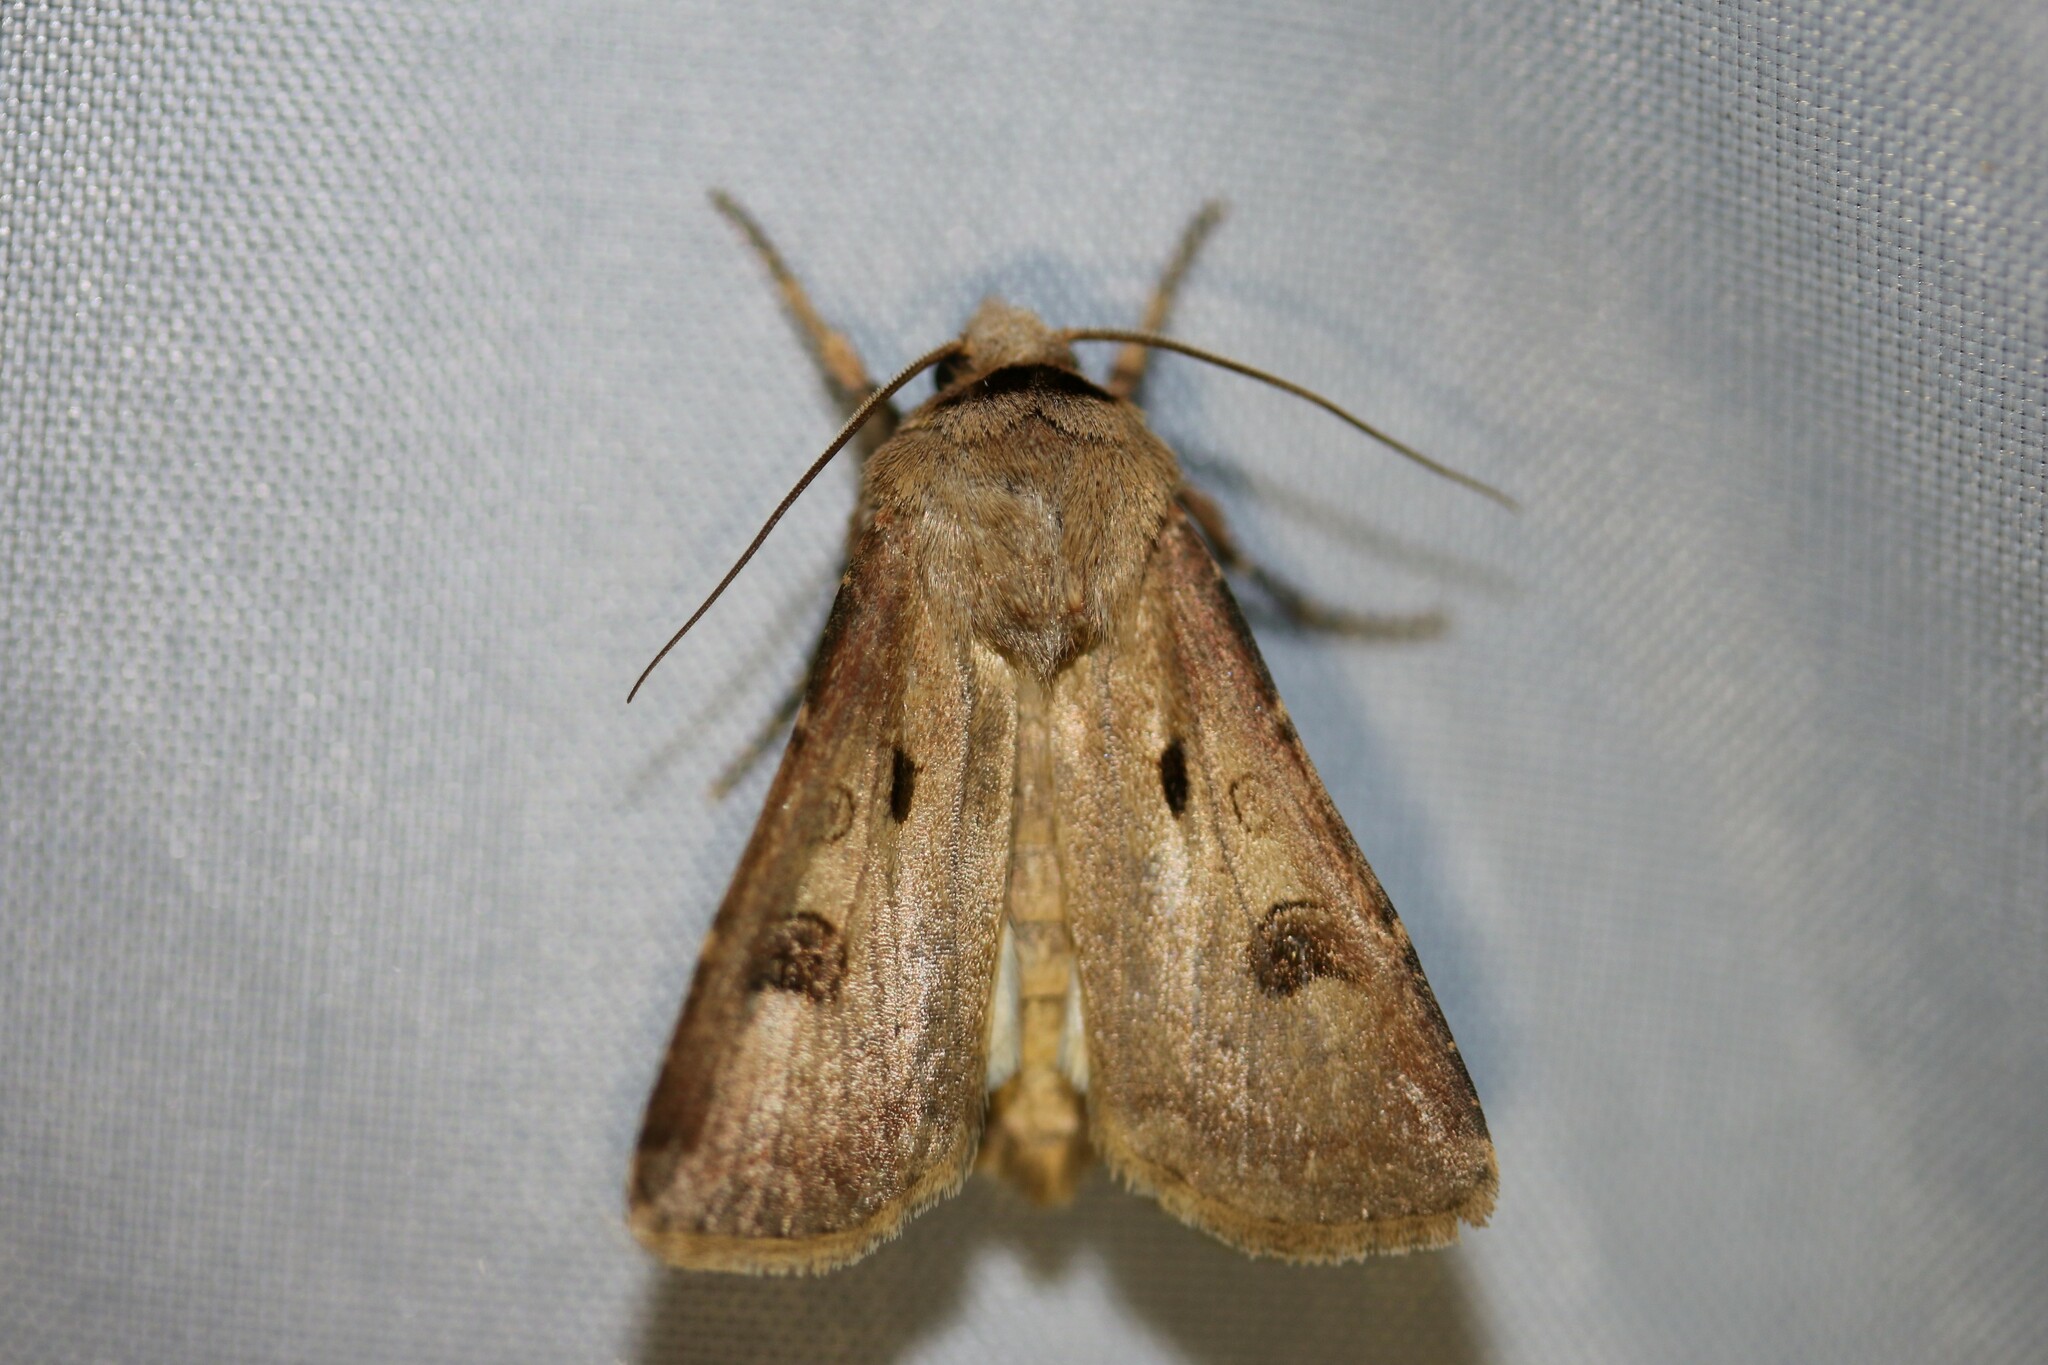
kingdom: Animalia
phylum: Arthropoda
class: Insecta
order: Lepidoptera
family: Noctuidae
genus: Agrotis
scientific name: Agrotis exclamationis
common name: Heart and dart
